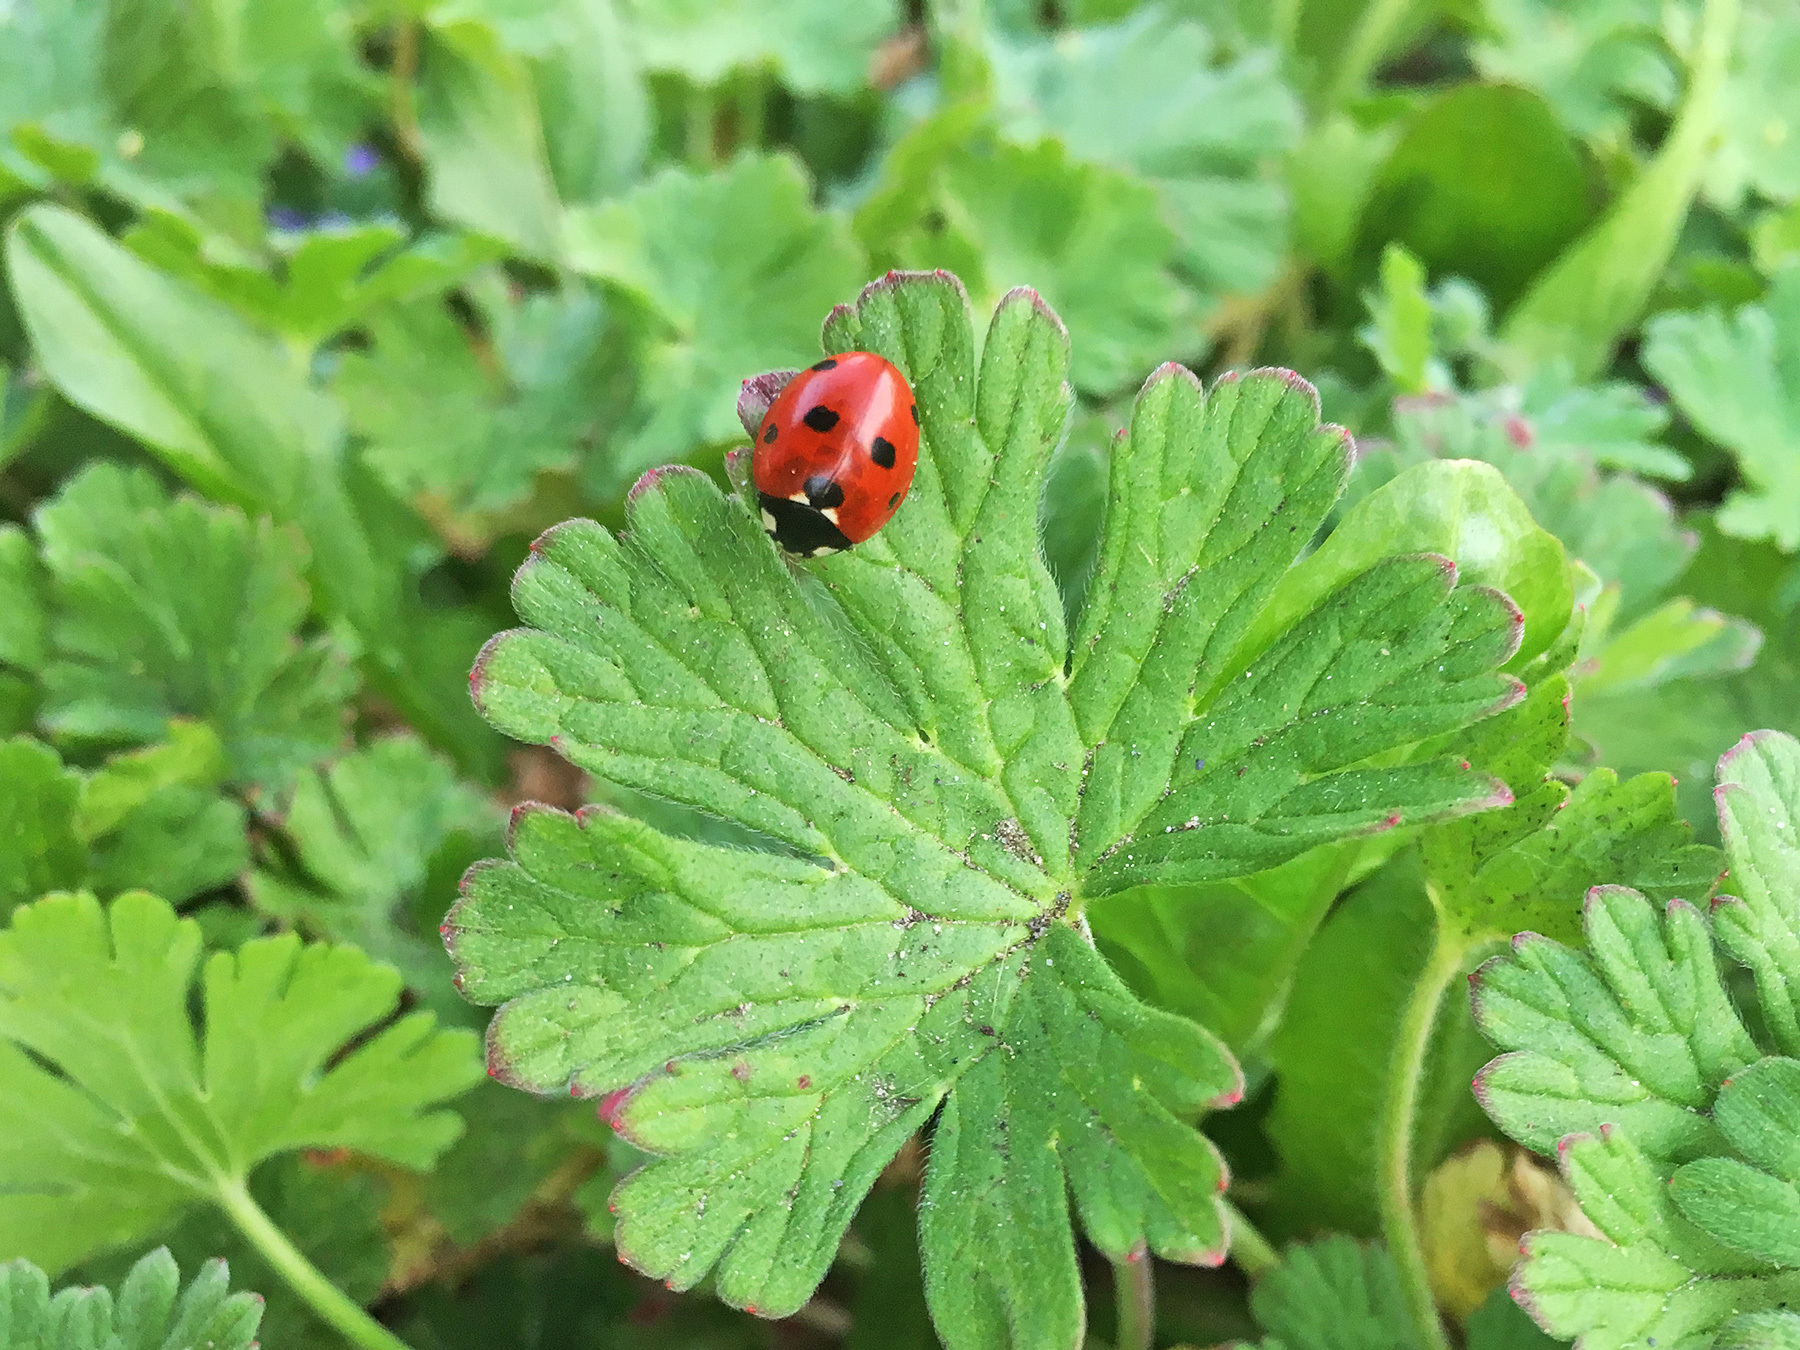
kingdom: Animalia
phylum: Arthropoda
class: Insecta
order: Coleoptera
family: Coccinellidae
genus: Coccinella
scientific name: Coccinella septempunctata
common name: Sevenspotted lady beetle
